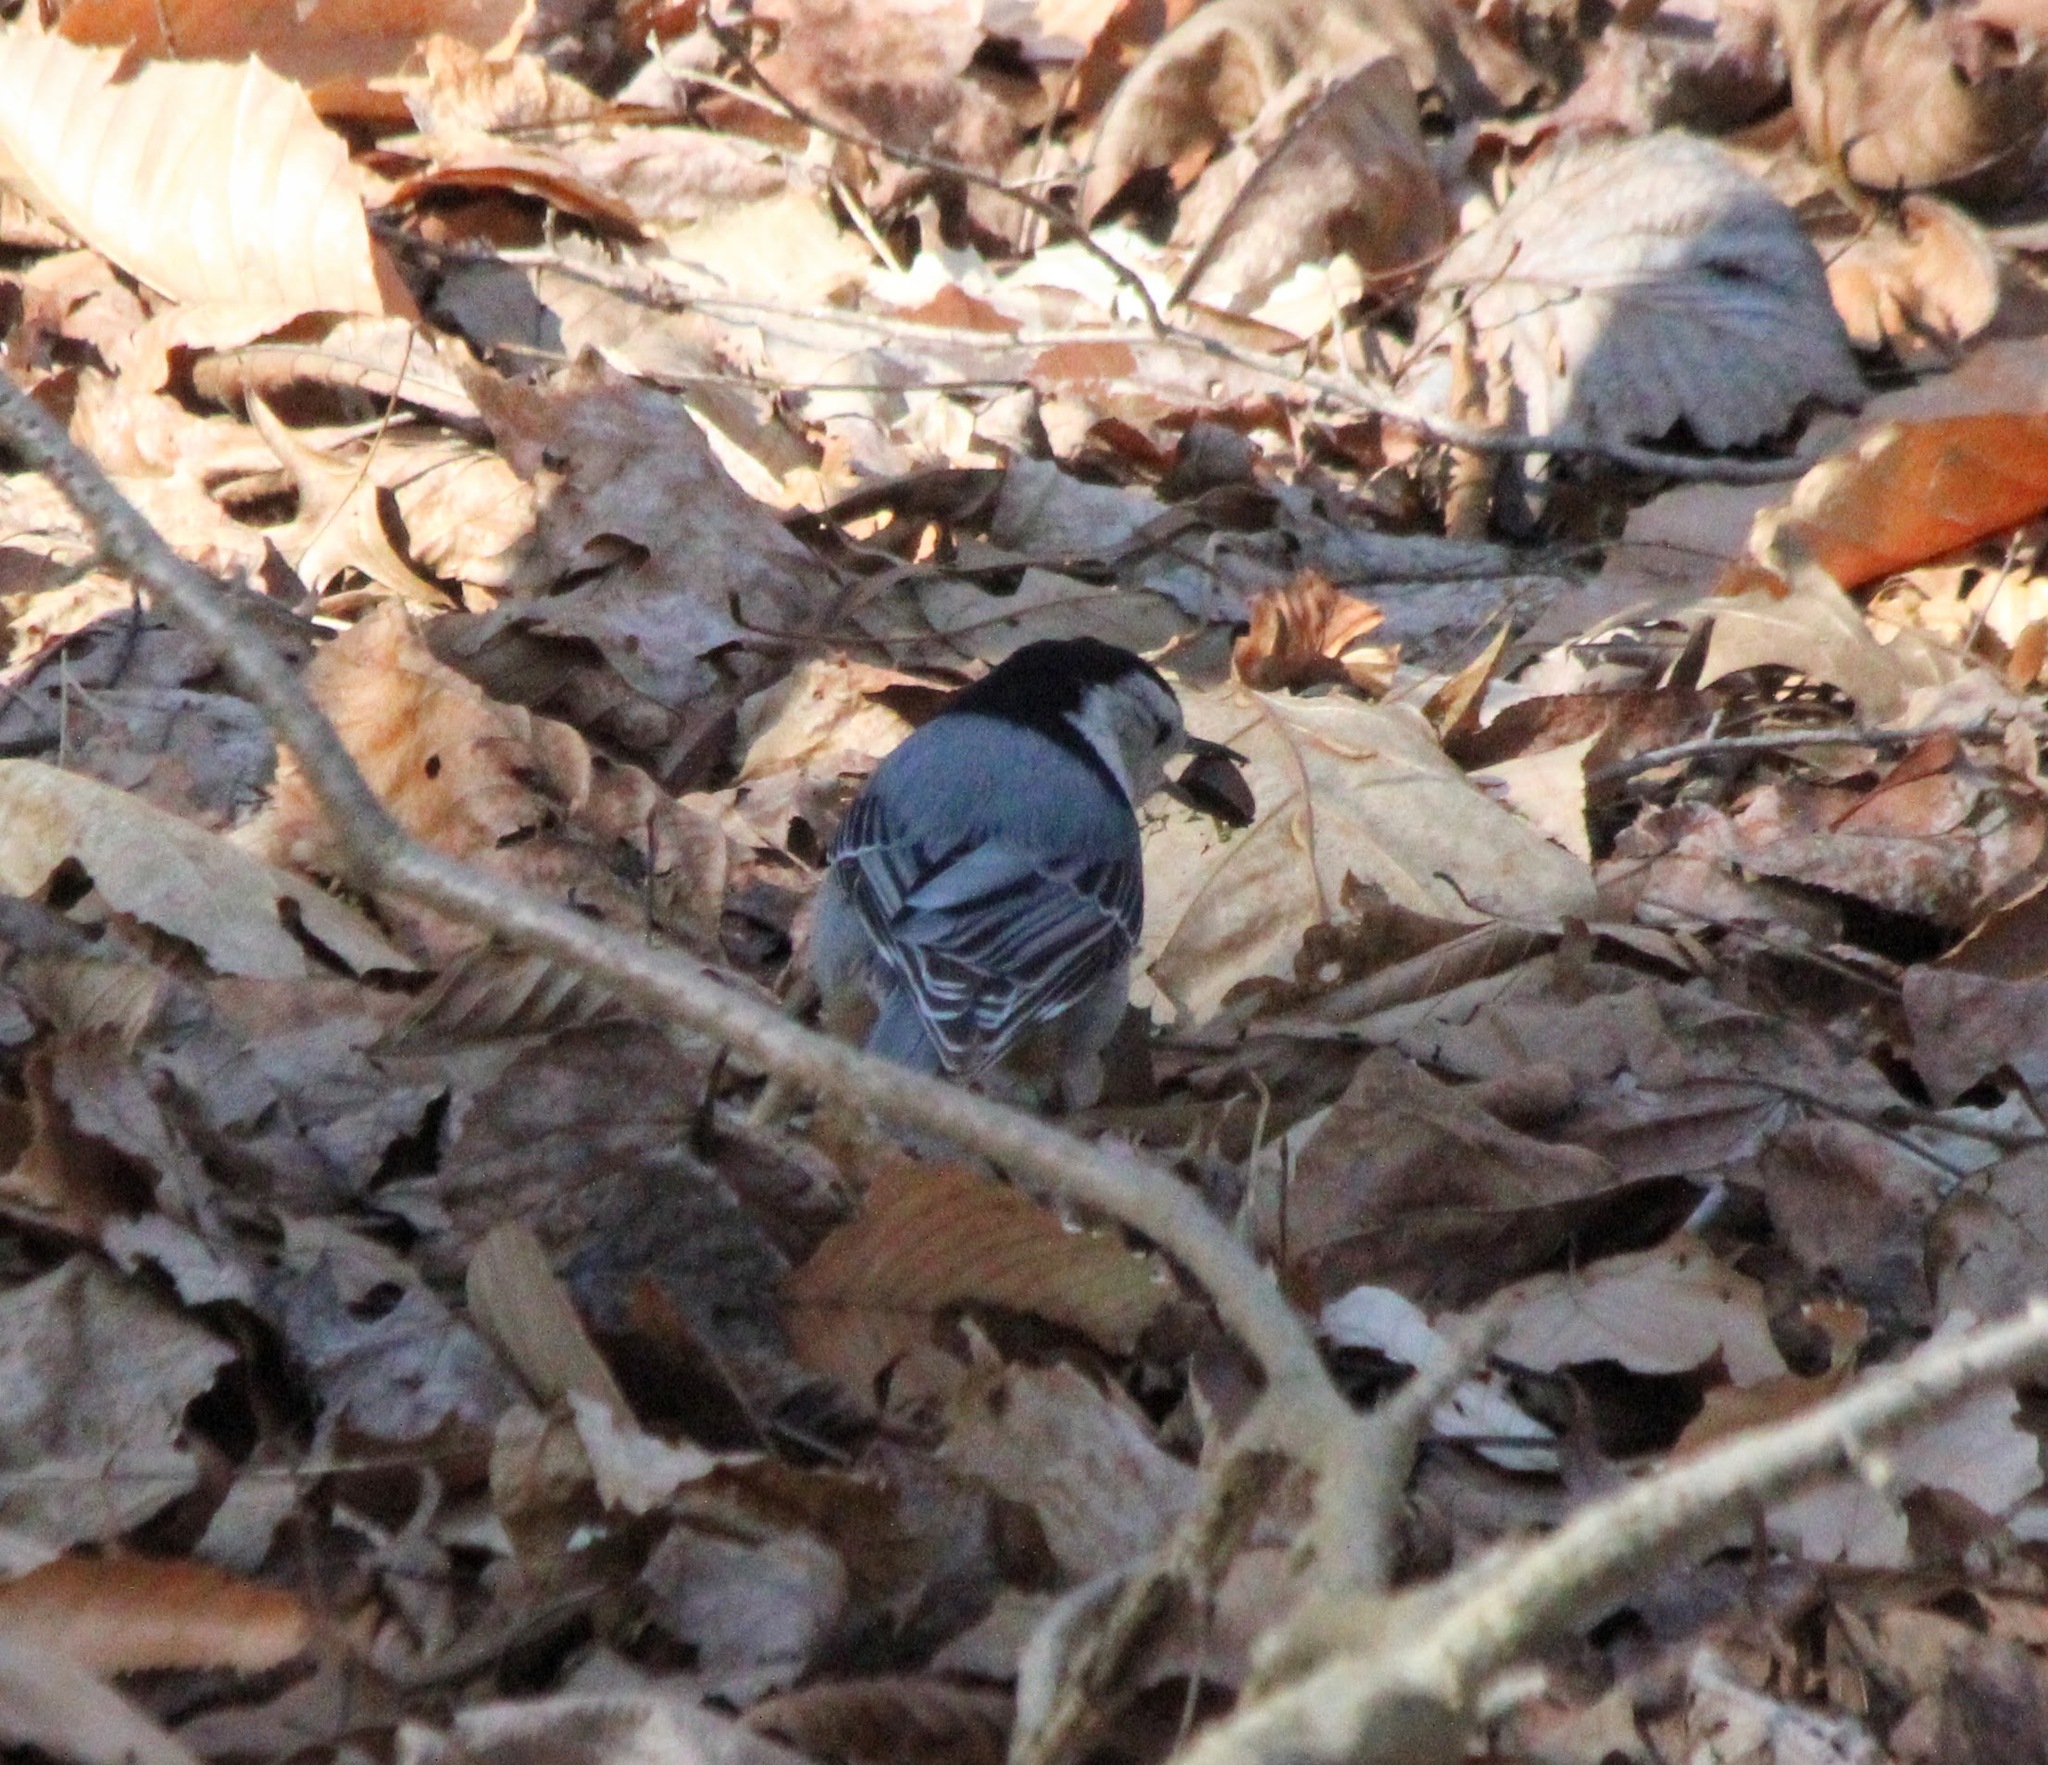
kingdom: Animalia
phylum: Chordata
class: Aves
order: Passeriformes
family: Sittidae
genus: Sitta
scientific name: Sitta carolinensis
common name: White-breasted nuthatch
